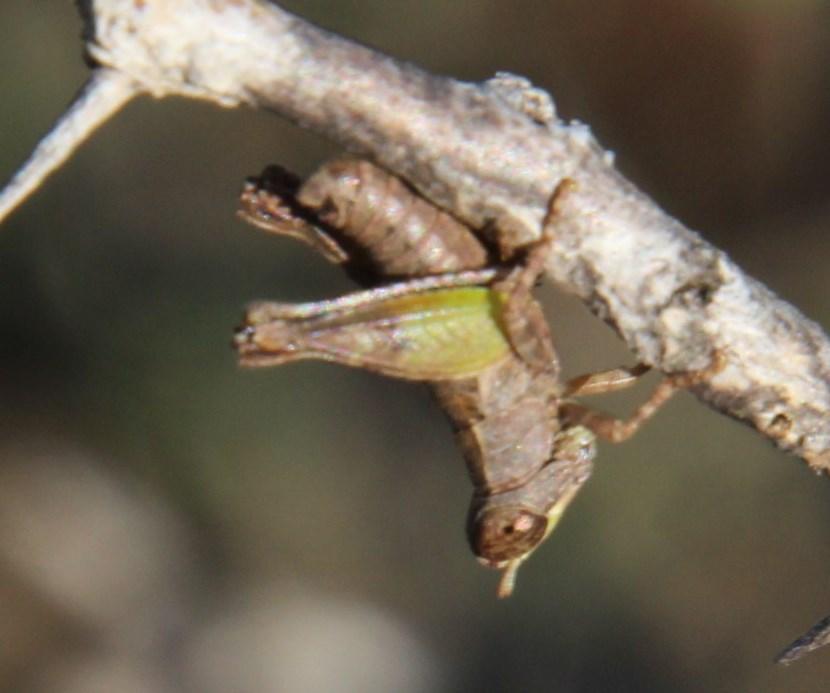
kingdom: Animalia
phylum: Arthropoda
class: Insecta
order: Orthoptera
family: Thericleidae
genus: Stenothericles
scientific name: Stenothericles orangensis
